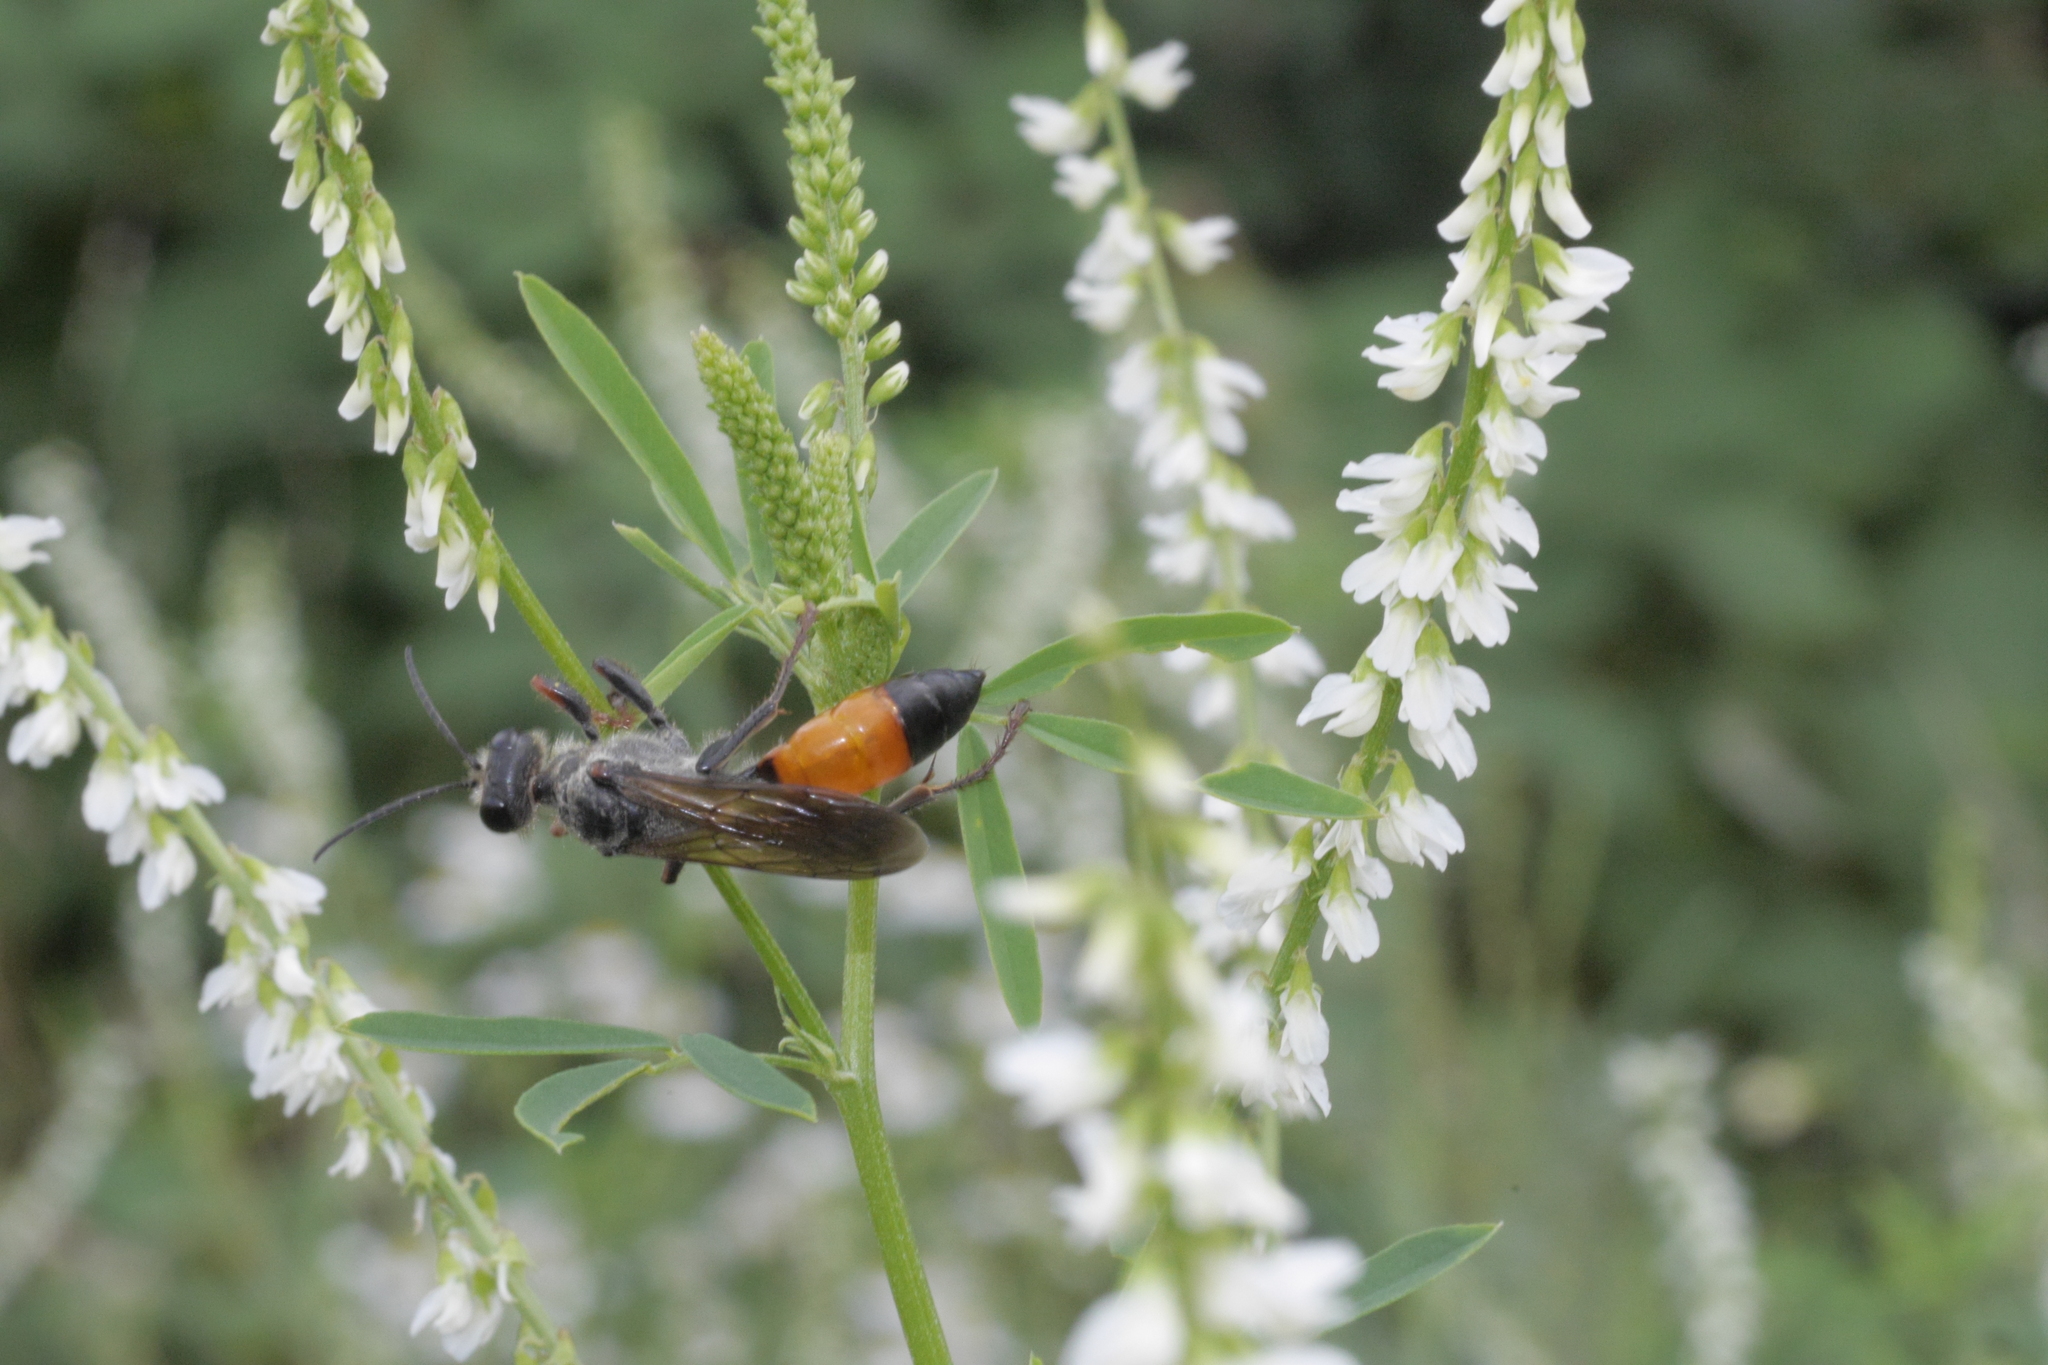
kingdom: Animalia
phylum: Arthropoda
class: Insecta
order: Hymenoptera
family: Sphecidae
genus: Sphex
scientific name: Sphex funerarius
